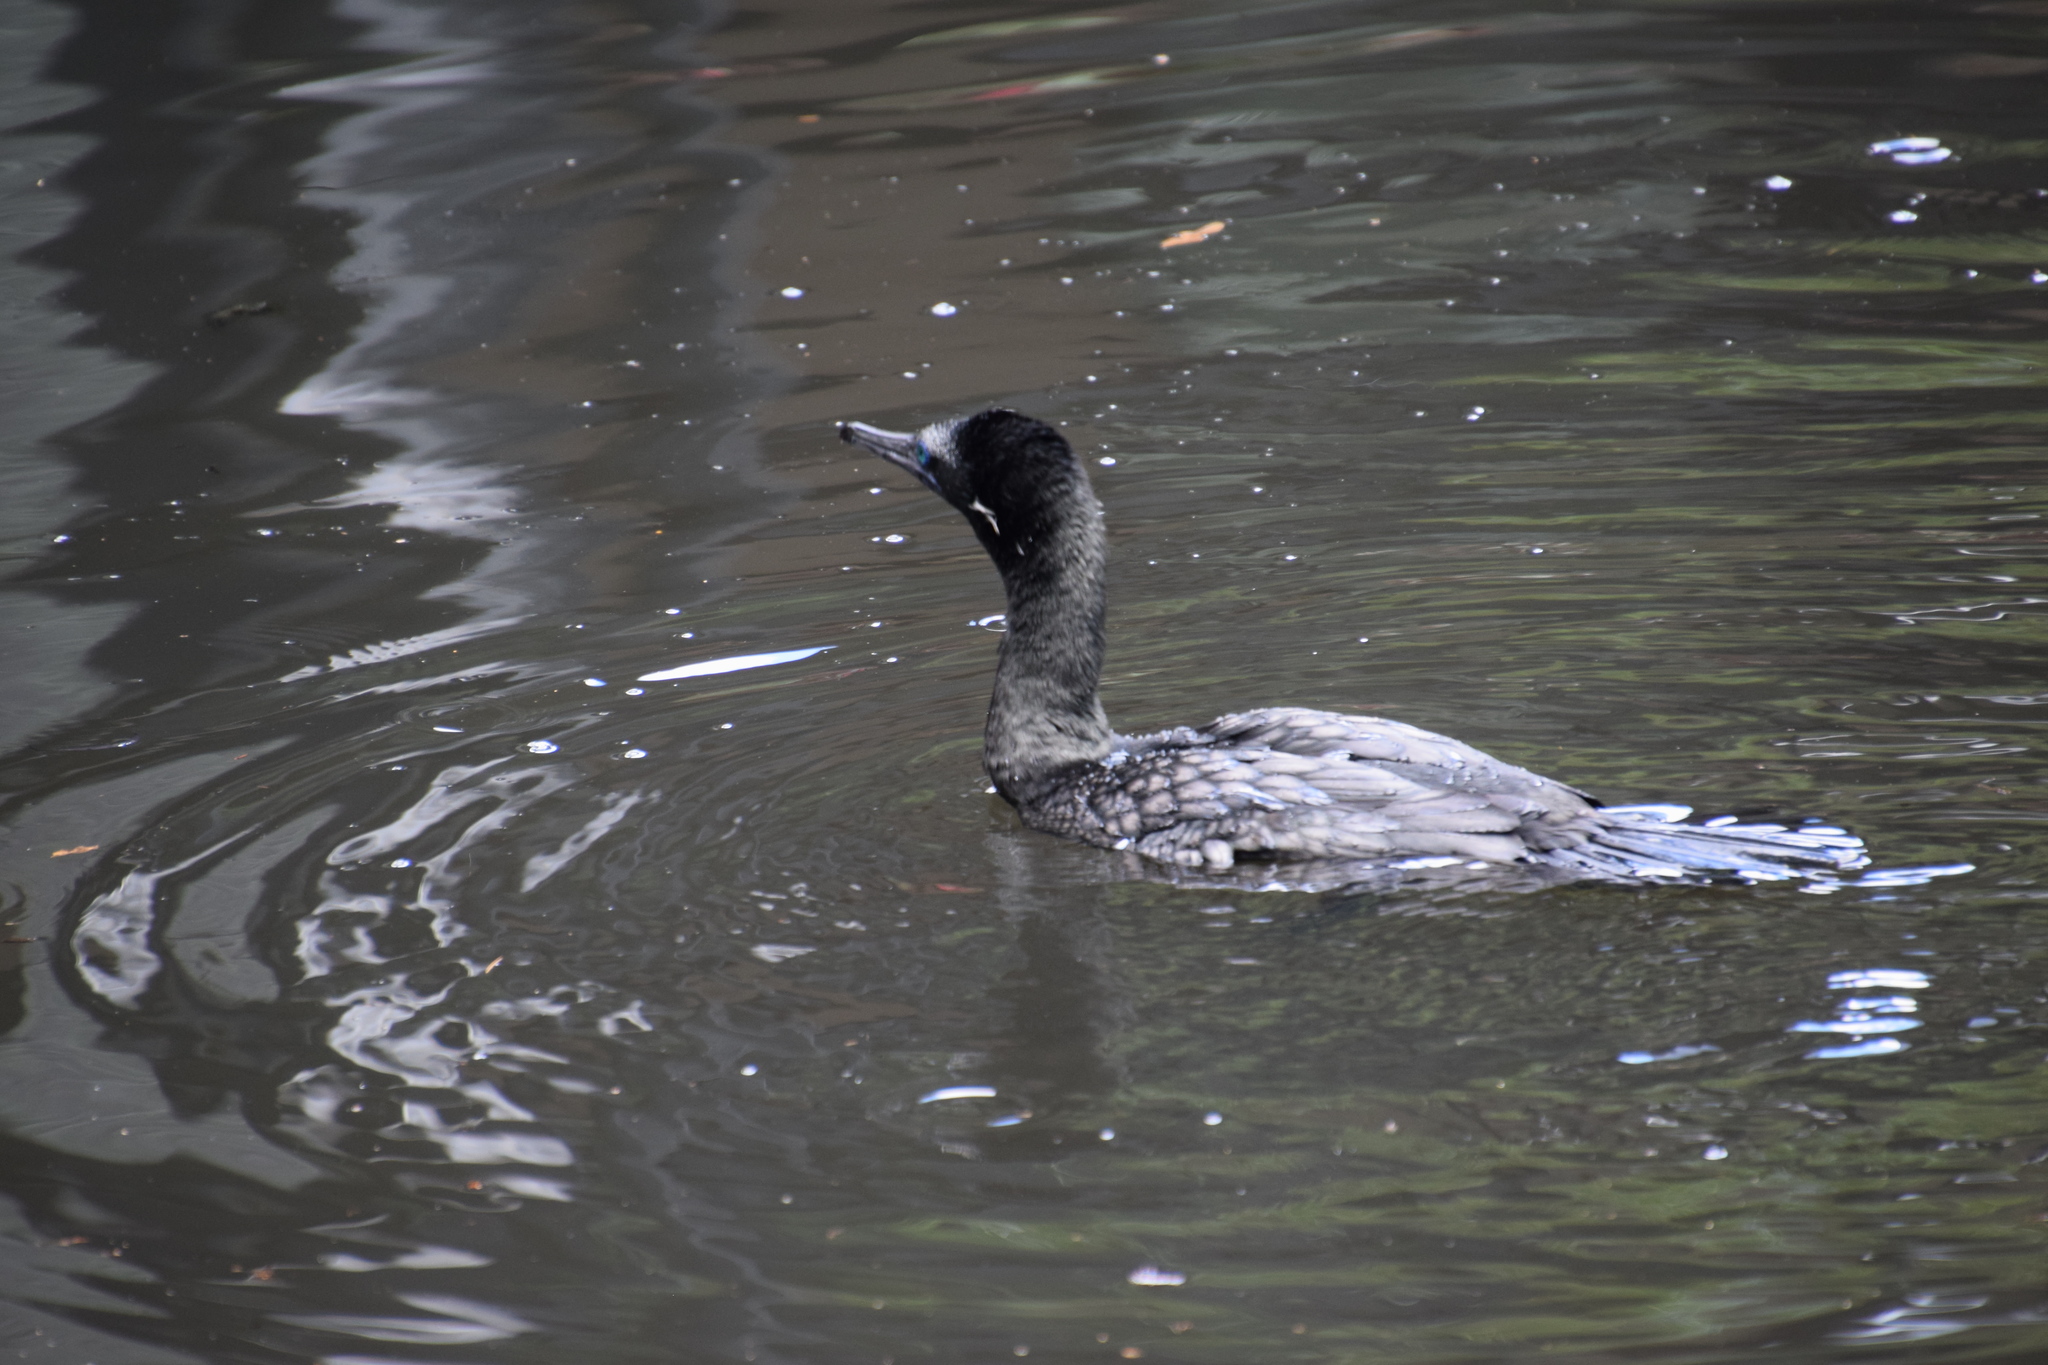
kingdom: Animalia
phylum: Chordata
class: Aves
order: Suliformes
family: Phalacrocoracidae
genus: Phalacrocorax
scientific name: Phalacrocorax sulcirostris
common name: Little black cormorant
